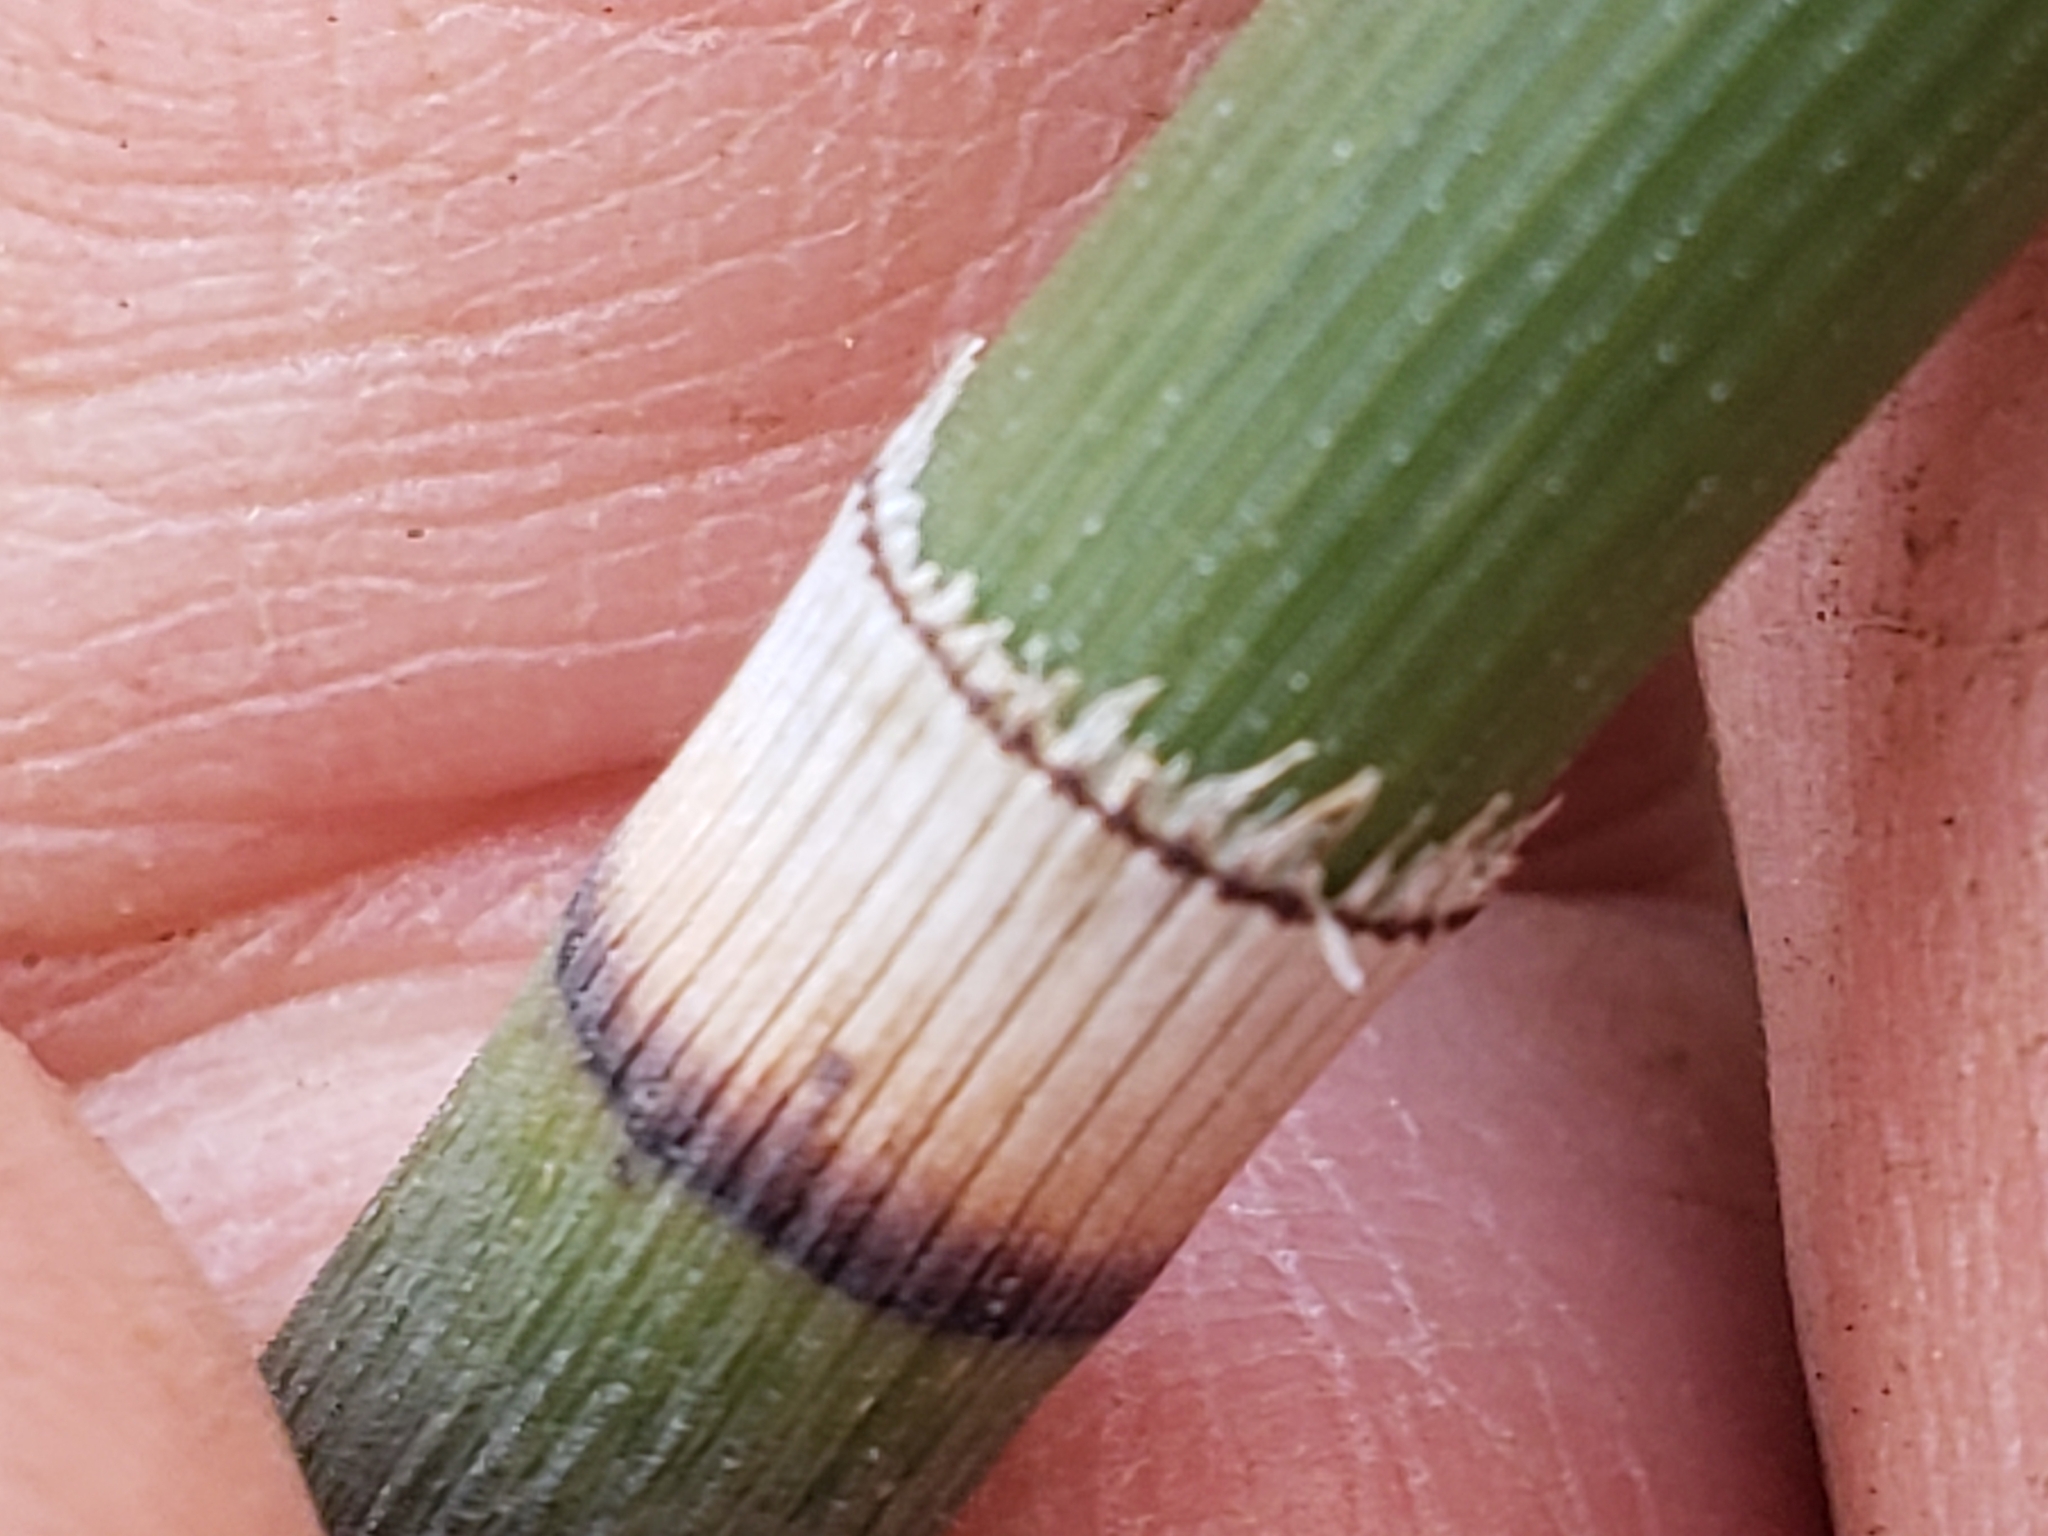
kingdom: Plantae
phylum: Tracheophyta
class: Polypodiopsida
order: Equisetales
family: Equisetaceae
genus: Equisetum
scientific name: Equisetum praealtum
